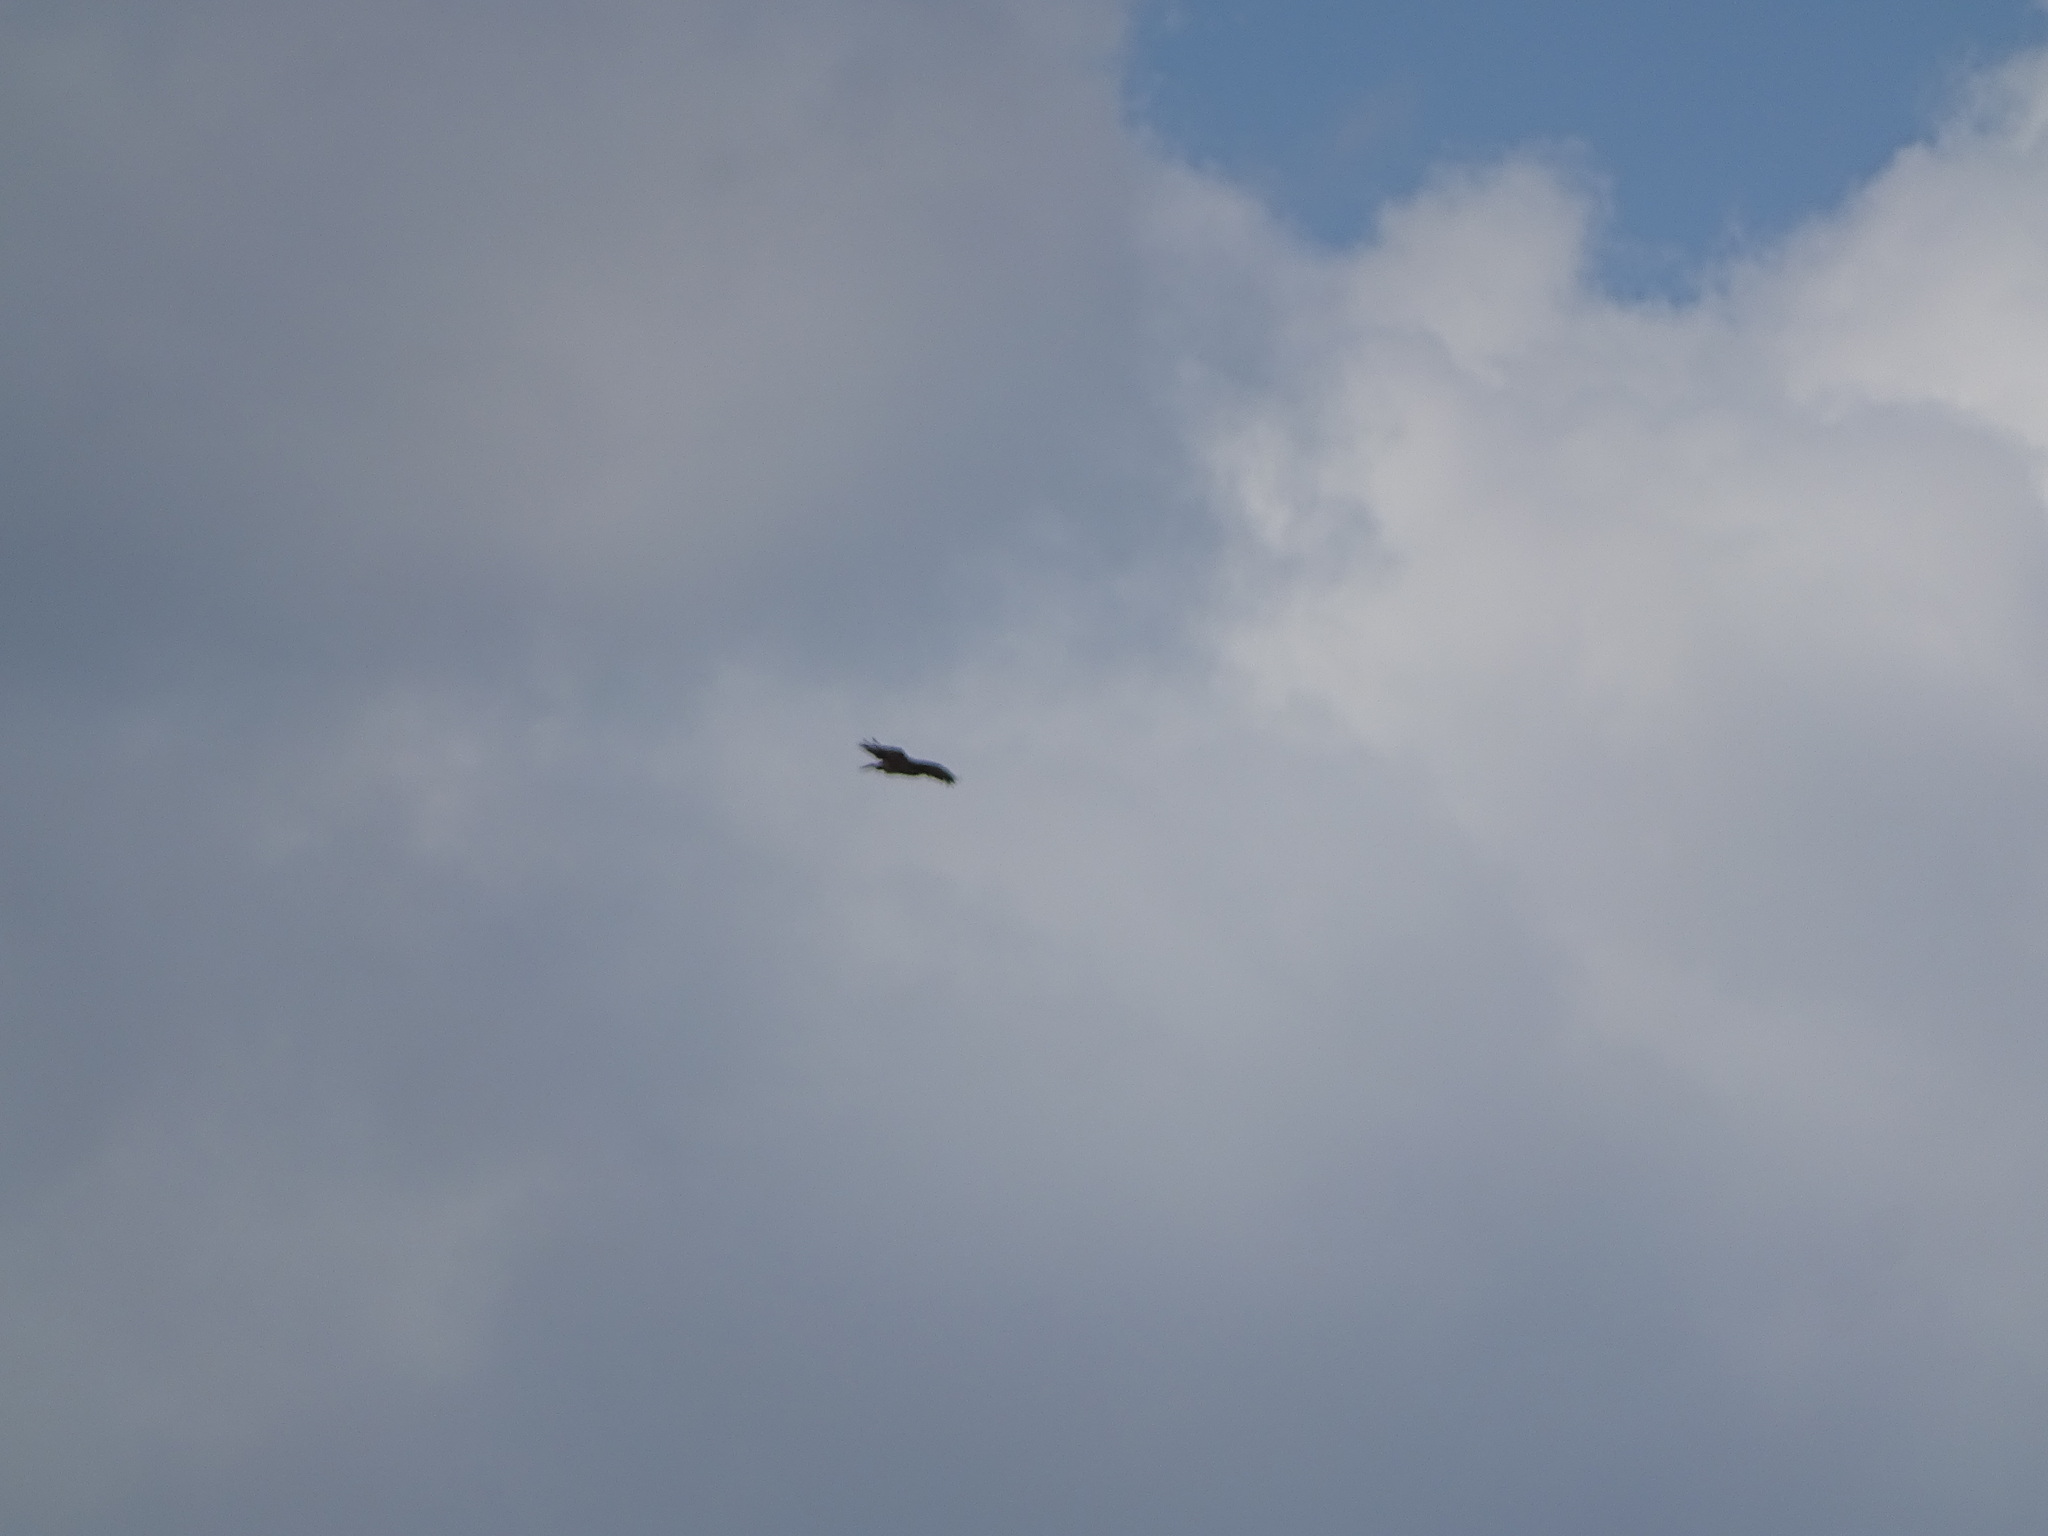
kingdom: Animalia
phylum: Chordata
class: Aves
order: Accipitriformes
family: Pandionidae
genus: Pandion
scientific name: Pandion haliaetus
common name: Osprey
